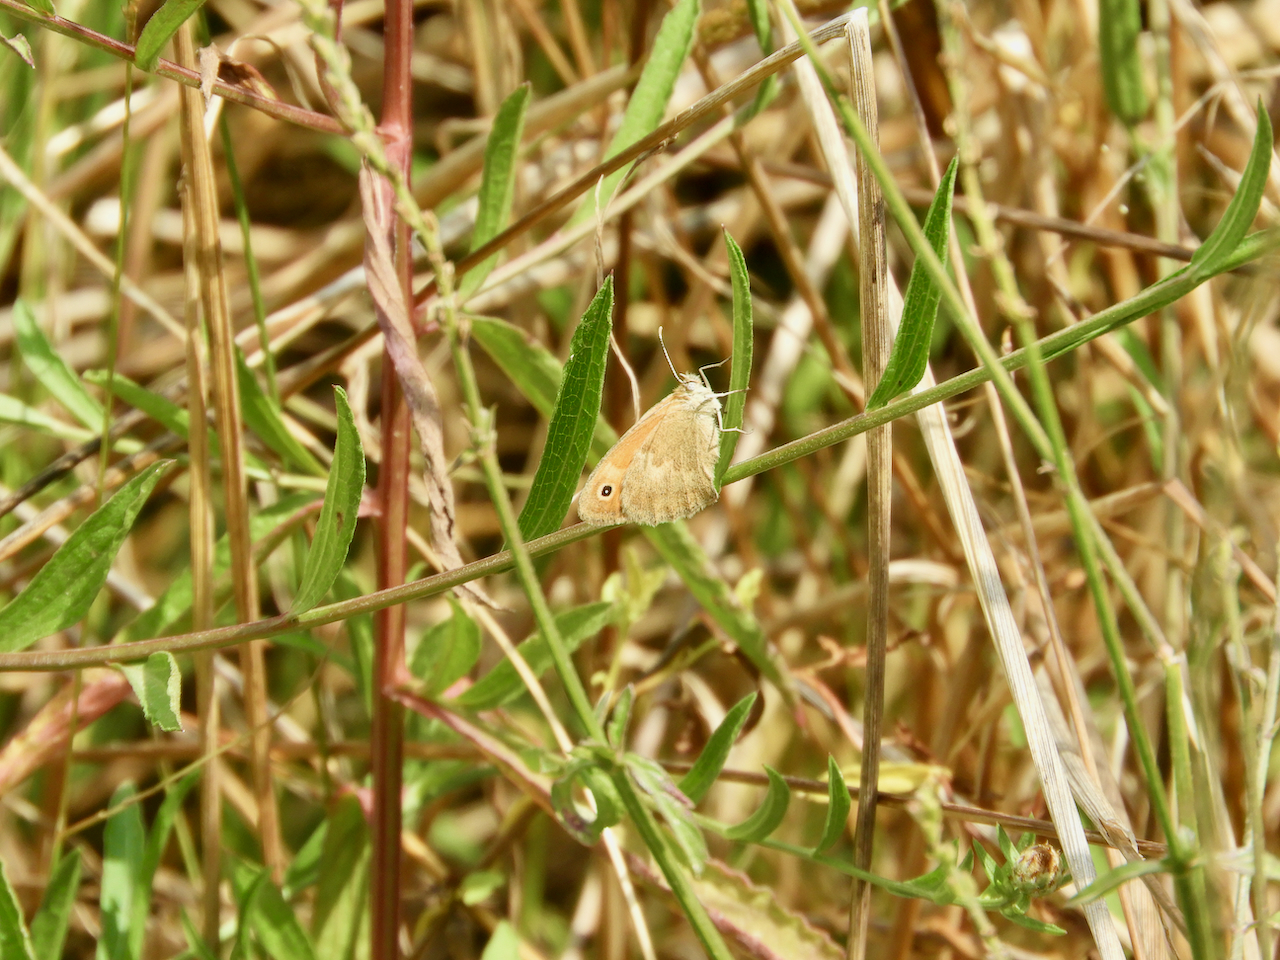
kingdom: Animalia
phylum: Arthropoda
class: Insecta
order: Lepidoptera
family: Nymphalidae
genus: Coenonympha
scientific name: Coenonympha pamphilus
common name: Small heath
